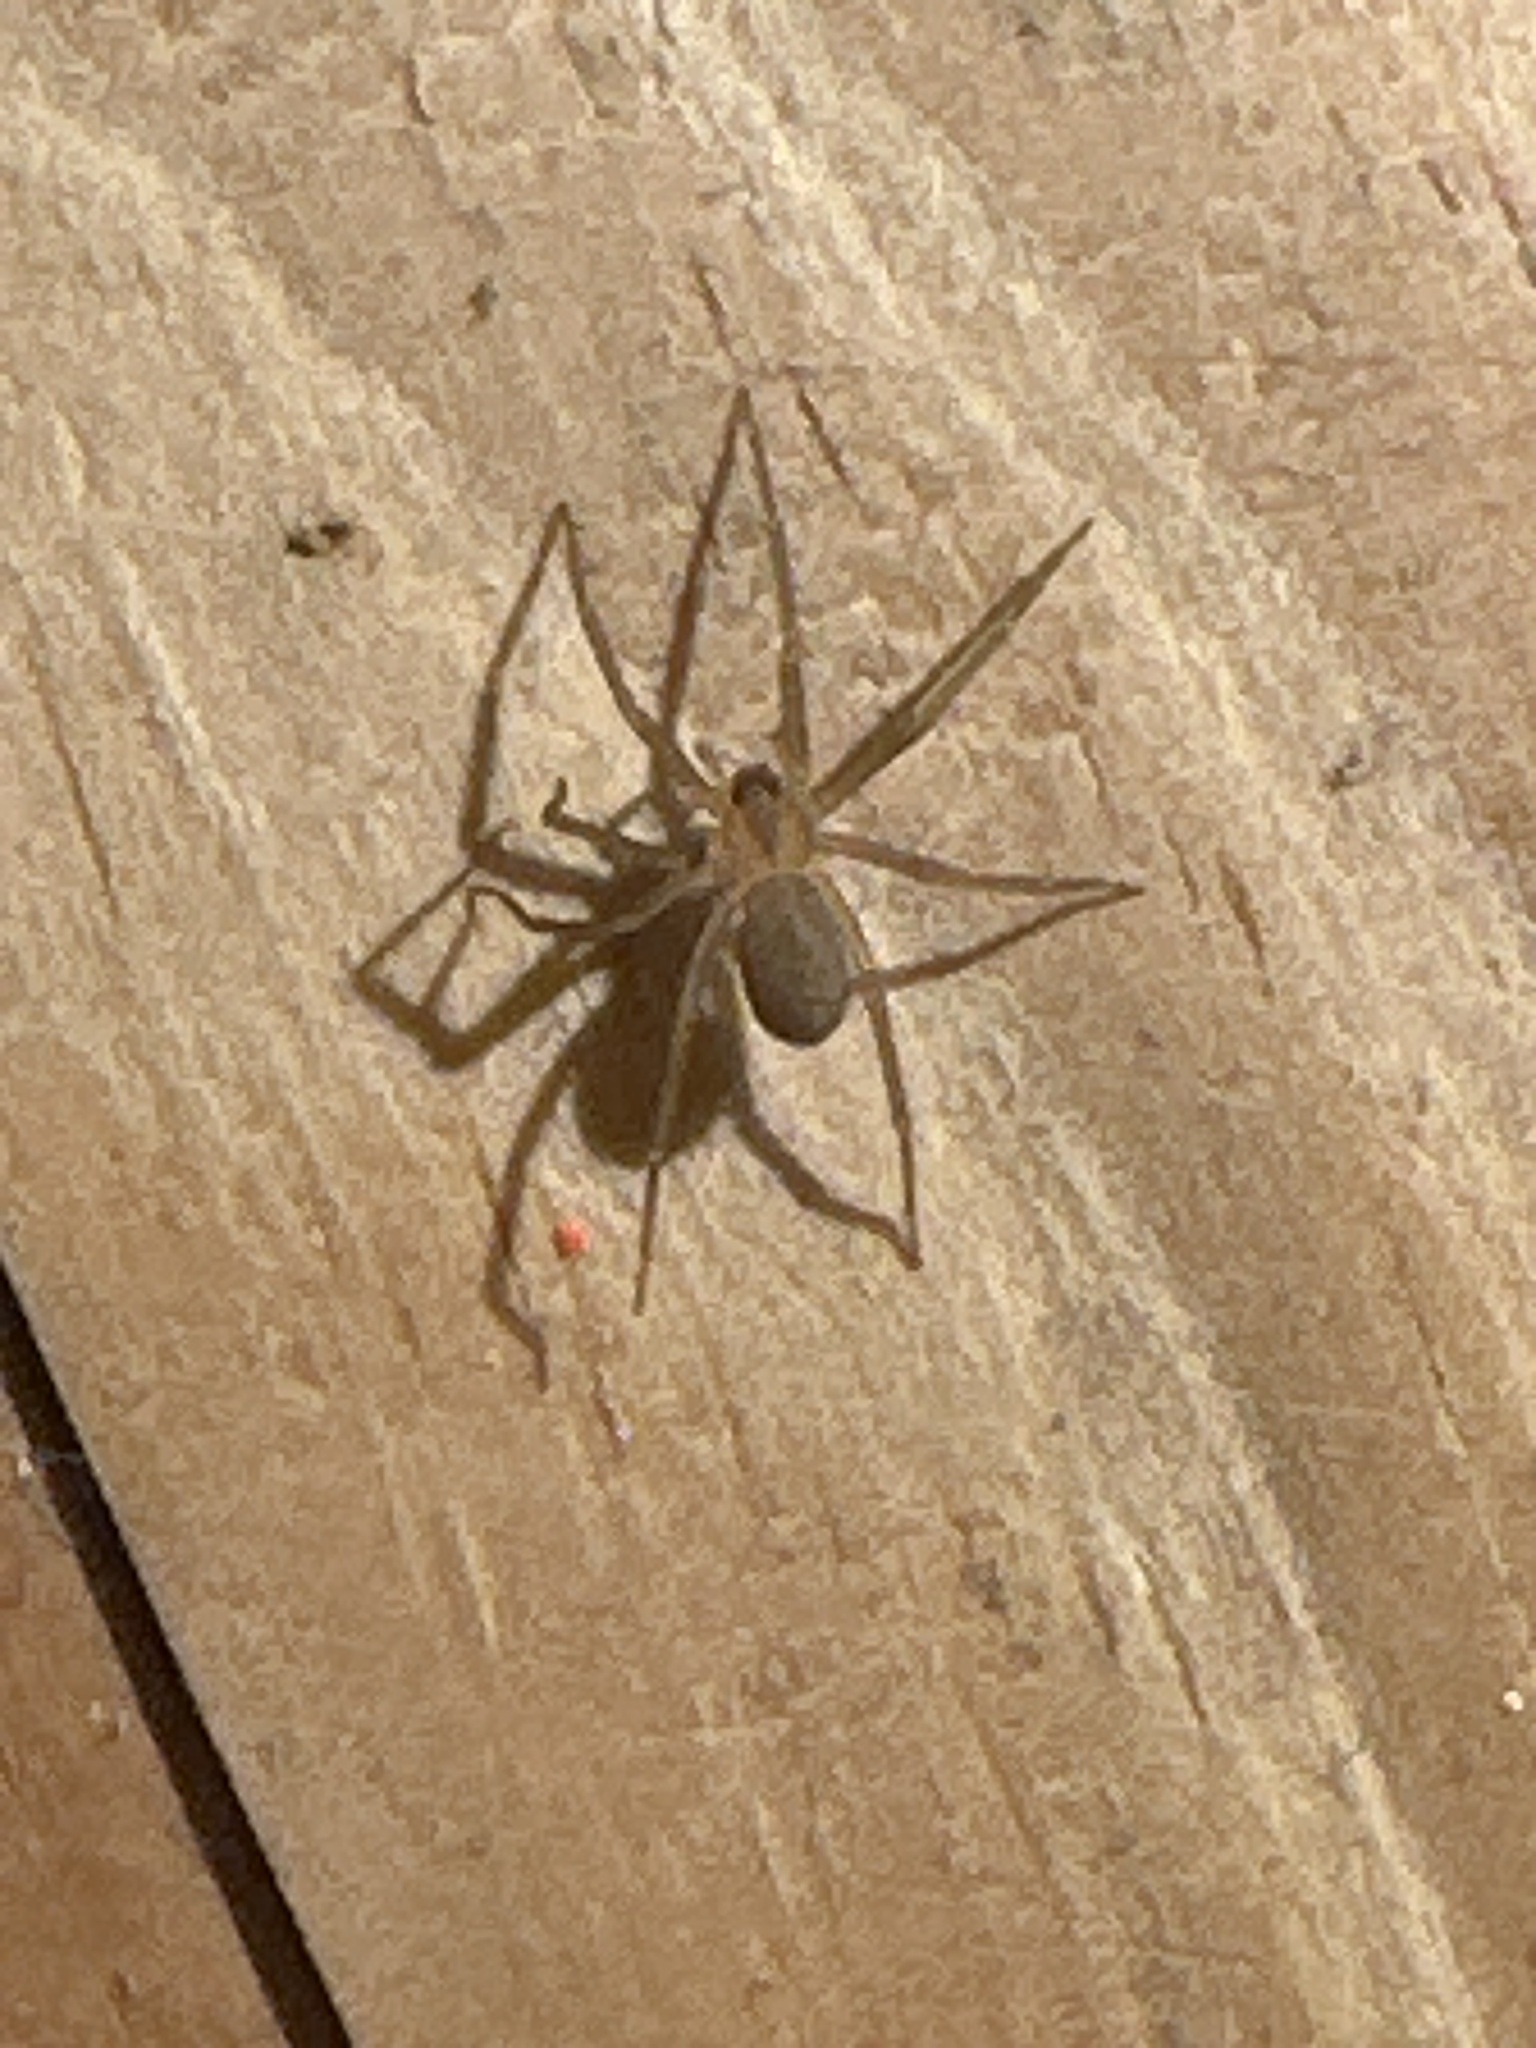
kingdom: Animalia
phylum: Arthropoda
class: Arachnida
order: Araneae
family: Sicariidae
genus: Loxosceles
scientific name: Loxosceles reclusa
